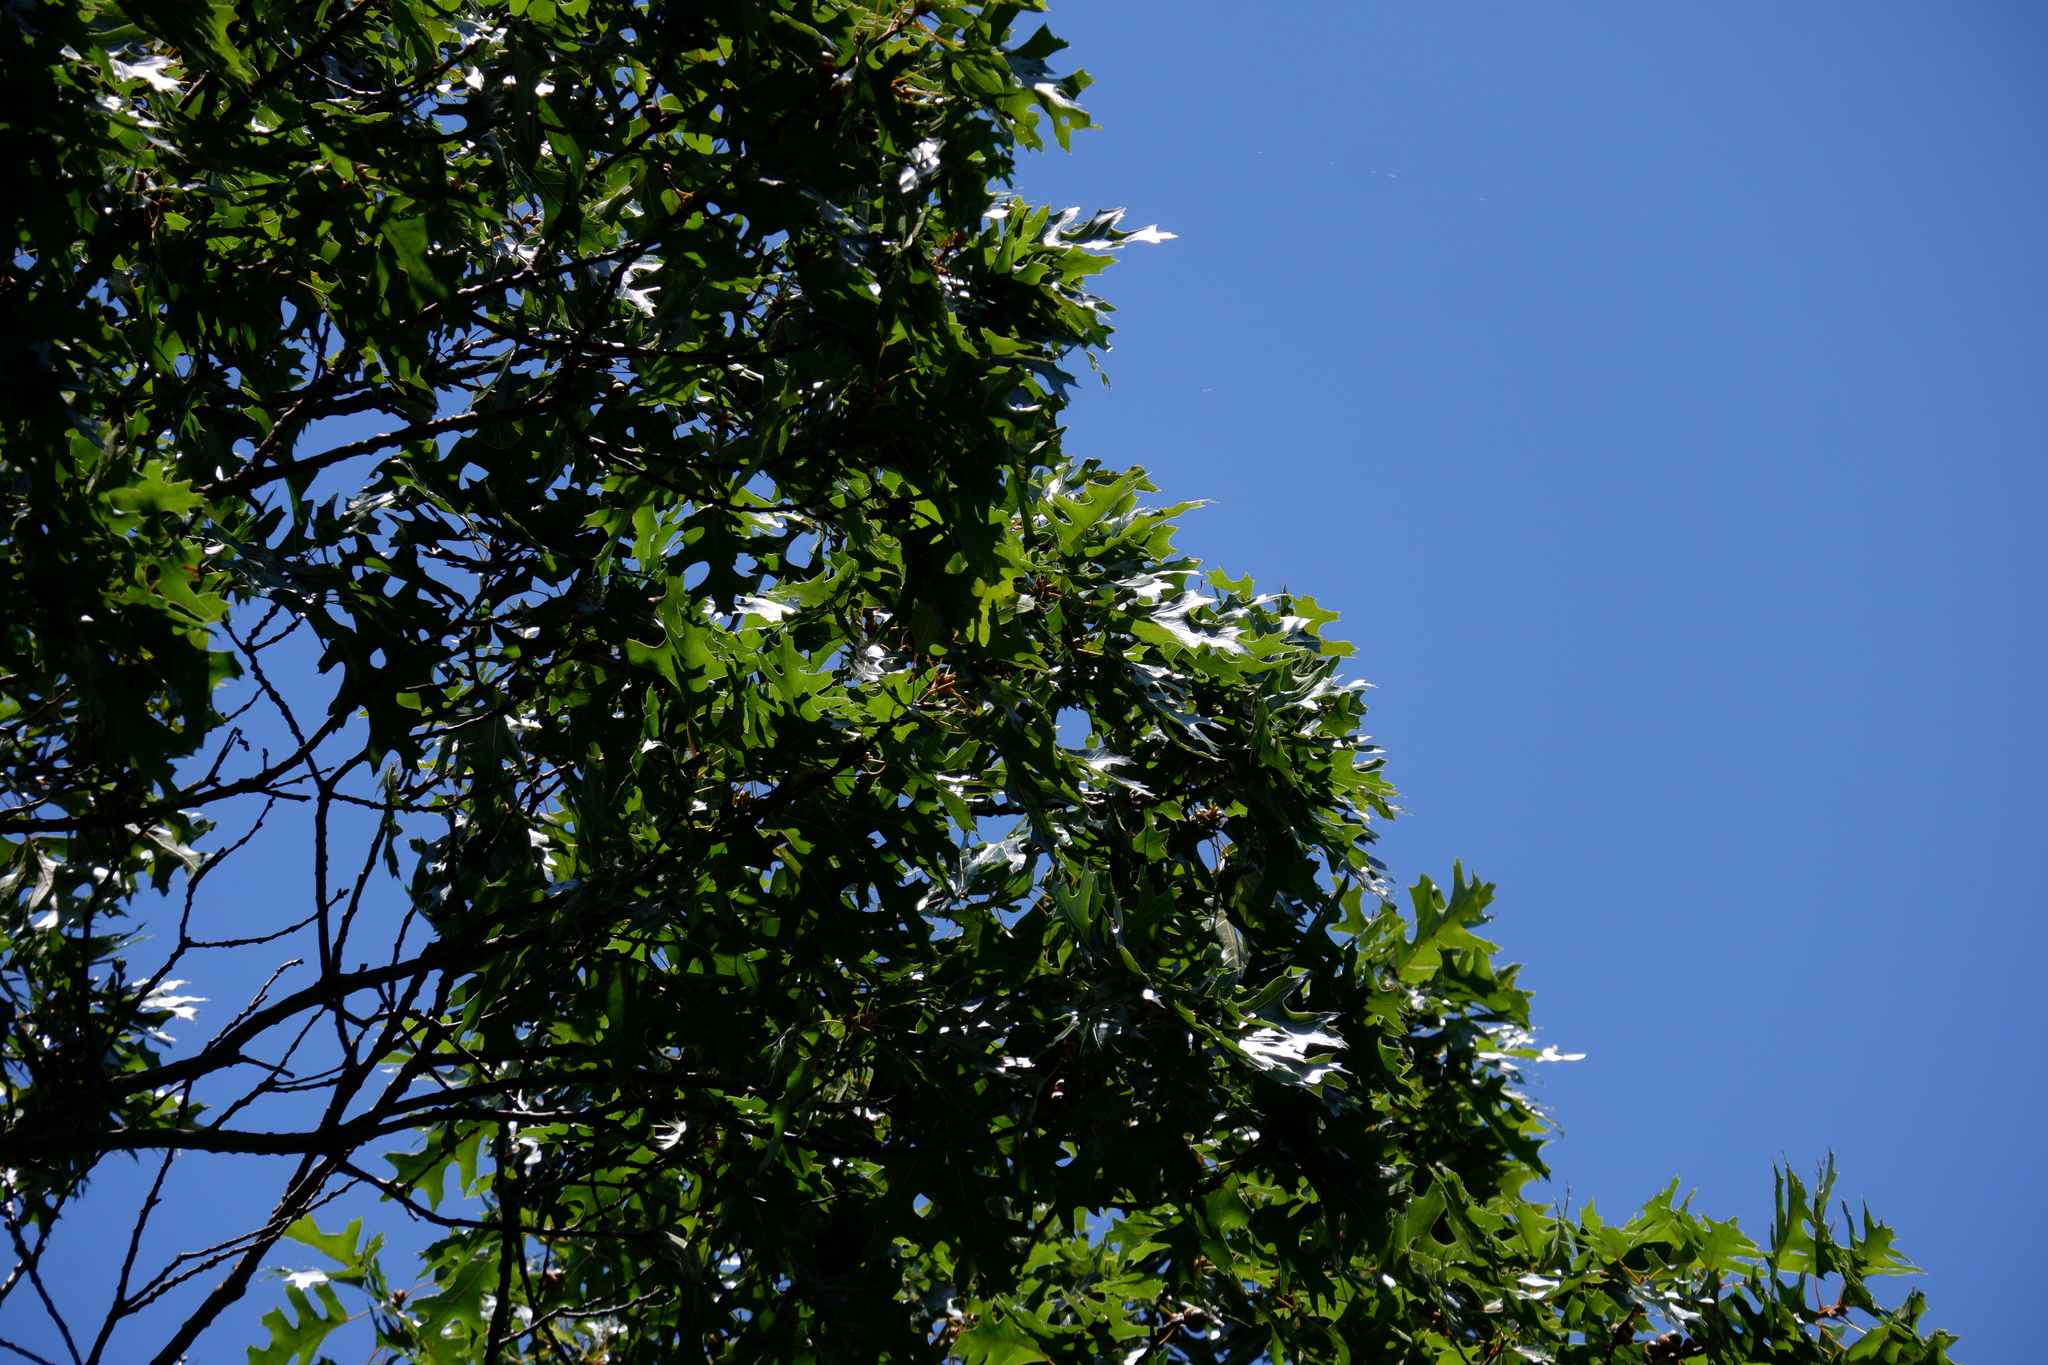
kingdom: Plantae
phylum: Tracheophyta
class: Magnoliopsida
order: Fagales
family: Fagaceae
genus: Quercus
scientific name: Quercus coccinea
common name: Scarlet oak
